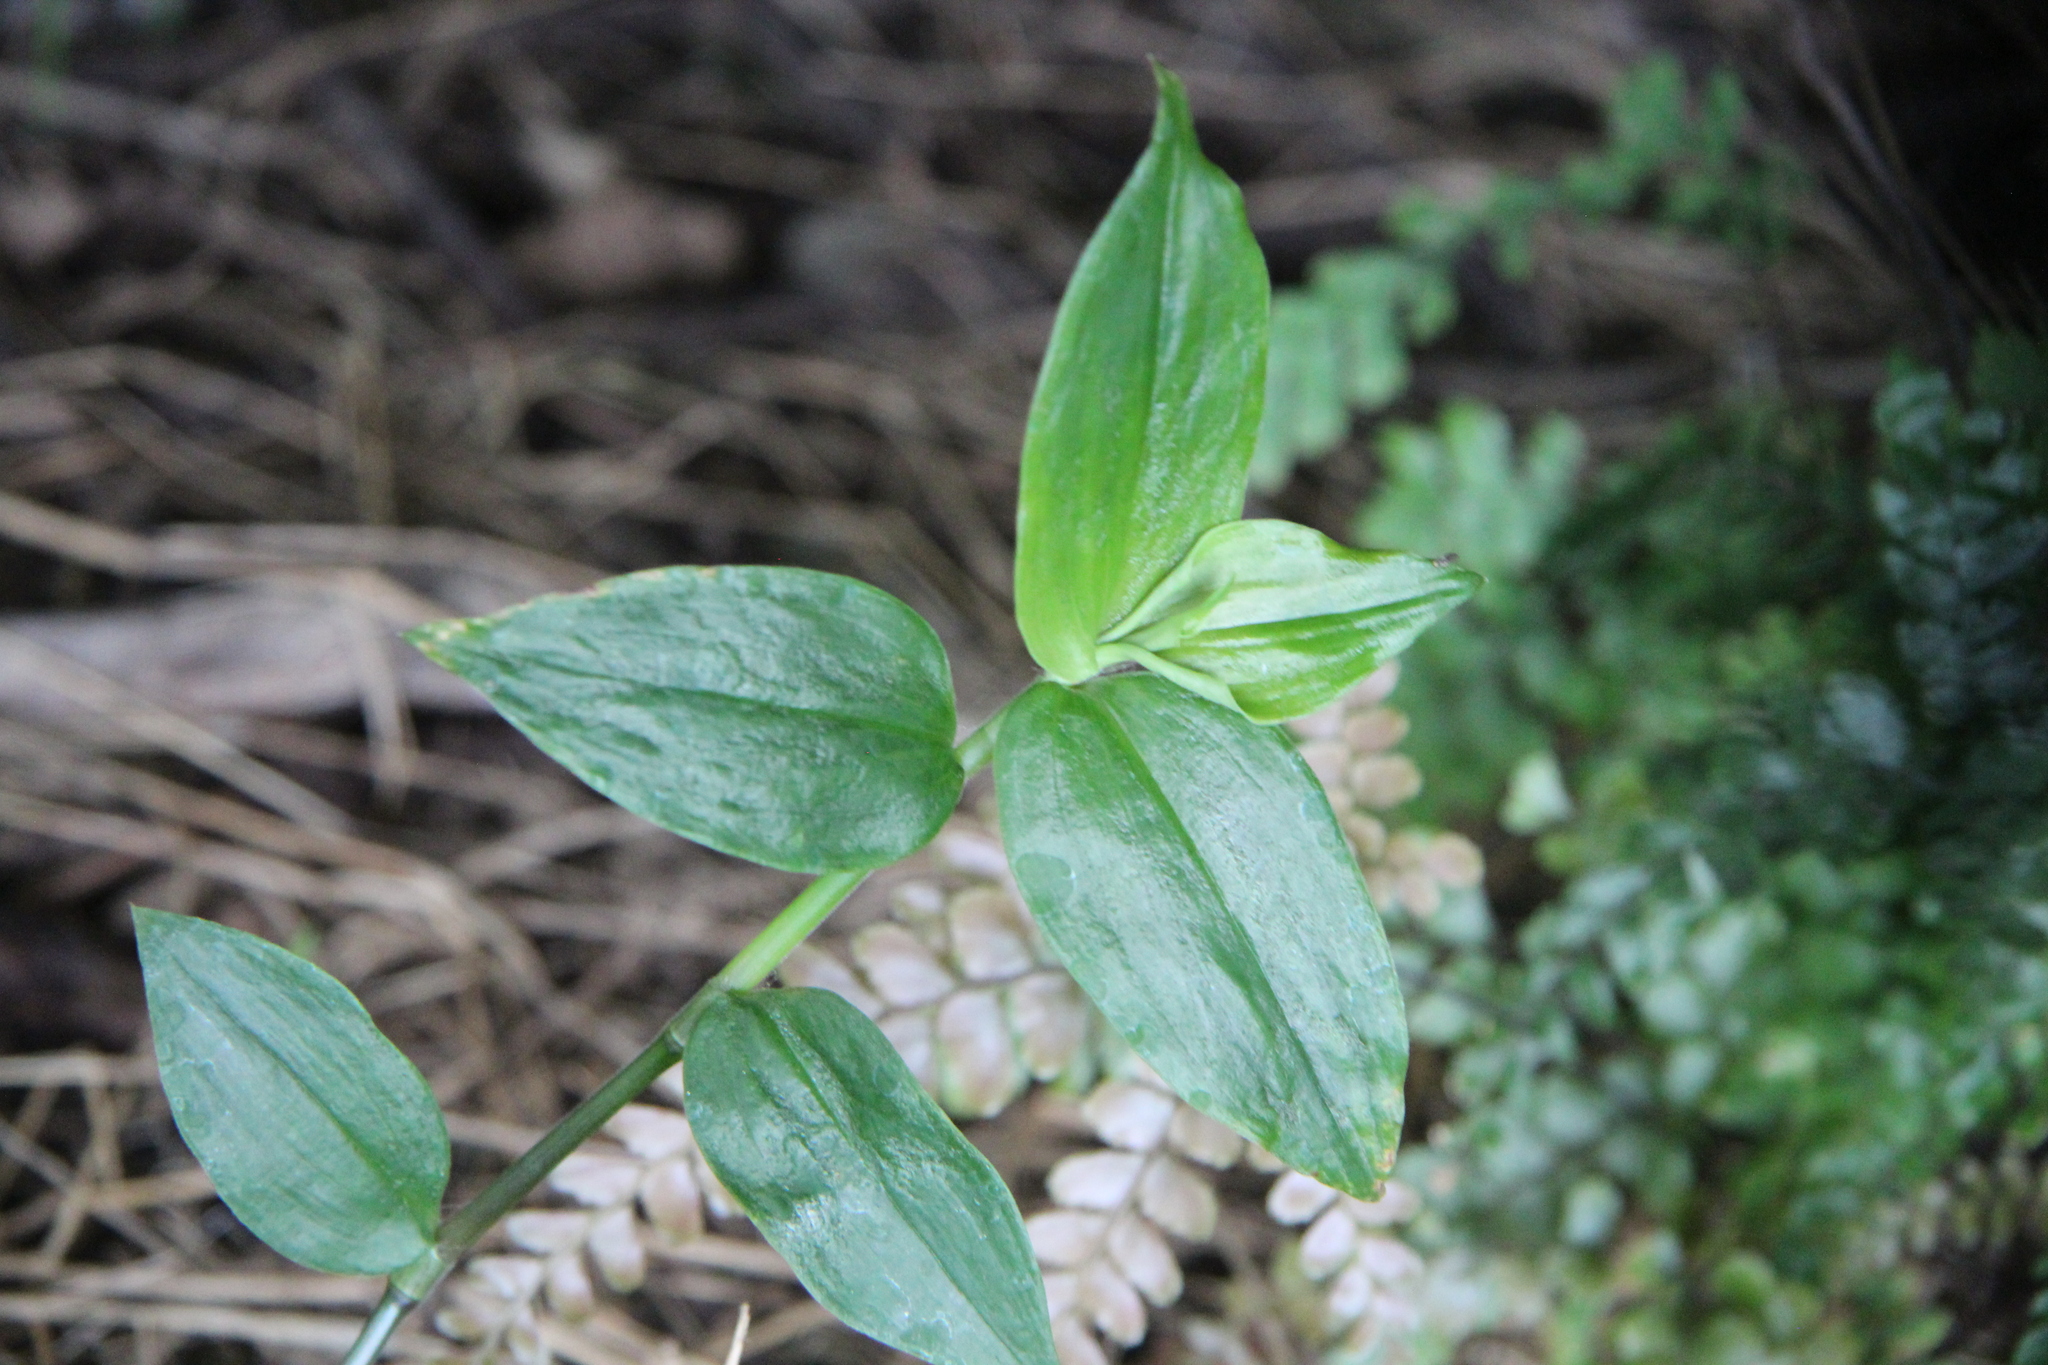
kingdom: Plantae
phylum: Tracheophyta
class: Liliopsida
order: Commelinales
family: Commelinaceae
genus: Tradescantia
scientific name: Tradescantia fluminensis
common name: Wandering-jew
